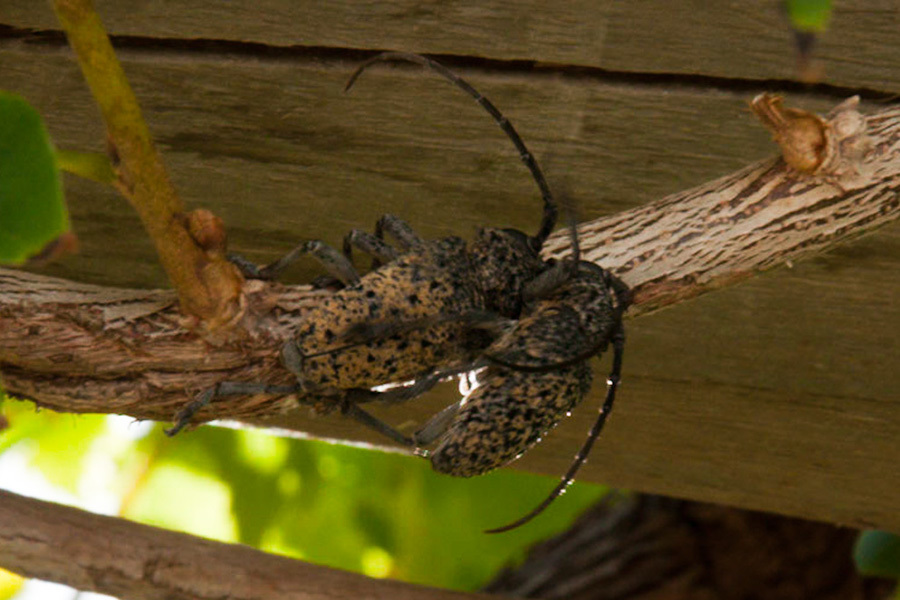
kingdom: Animalia
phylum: Arthropoda
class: Insecta
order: Coleoptera
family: Cerambycidae
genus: Phryneta
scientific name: Phryneta spinator
